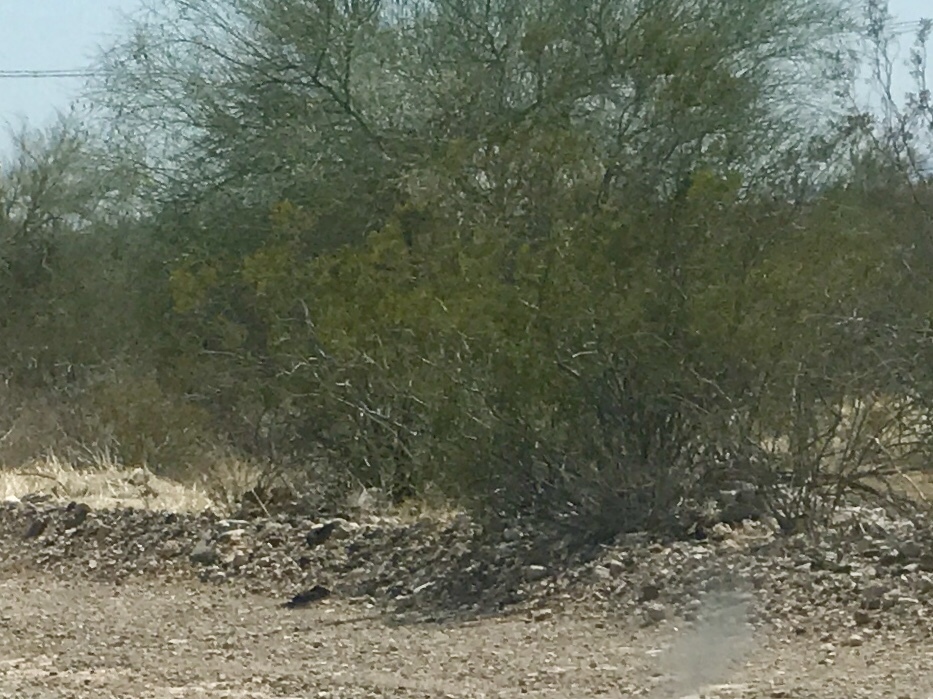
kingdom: Plantae
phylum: Tracheophyta
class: Magnoliopsida
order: Zygophyllales
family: Zygophyllaceae
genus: Larrea
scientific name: Larrea tridentata
